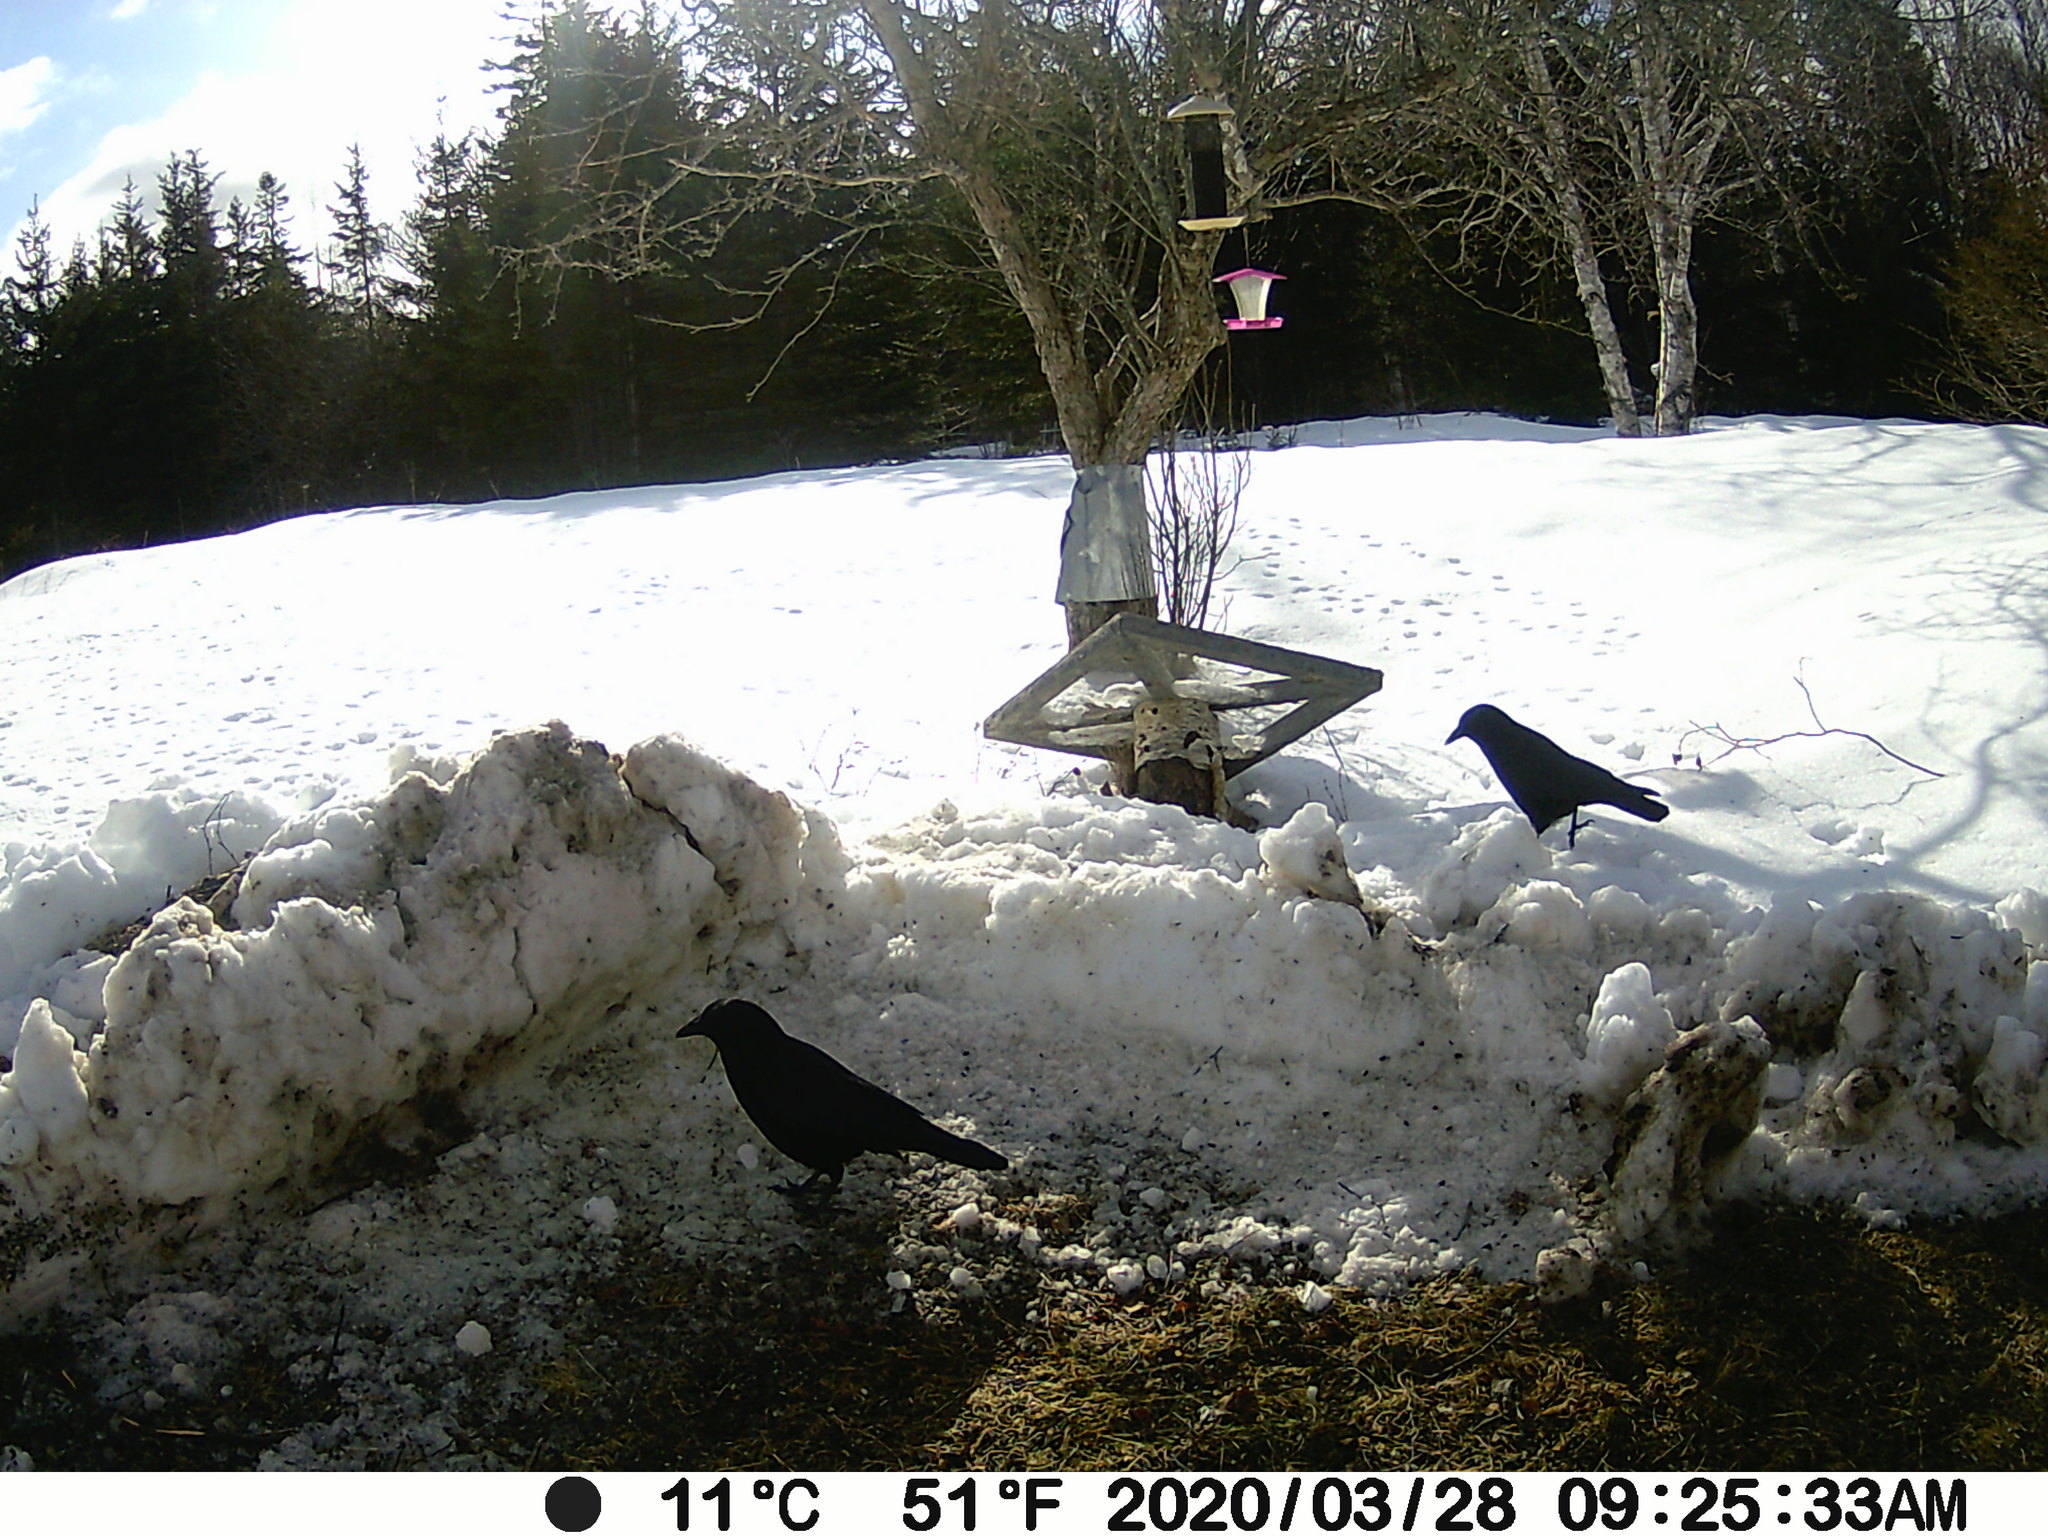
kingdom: Animalia
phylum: Chordata
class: Aves
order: Passeriformes
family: Corvidae
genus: Corvus
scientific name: Corvus brachyrhynchos
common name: American crow
